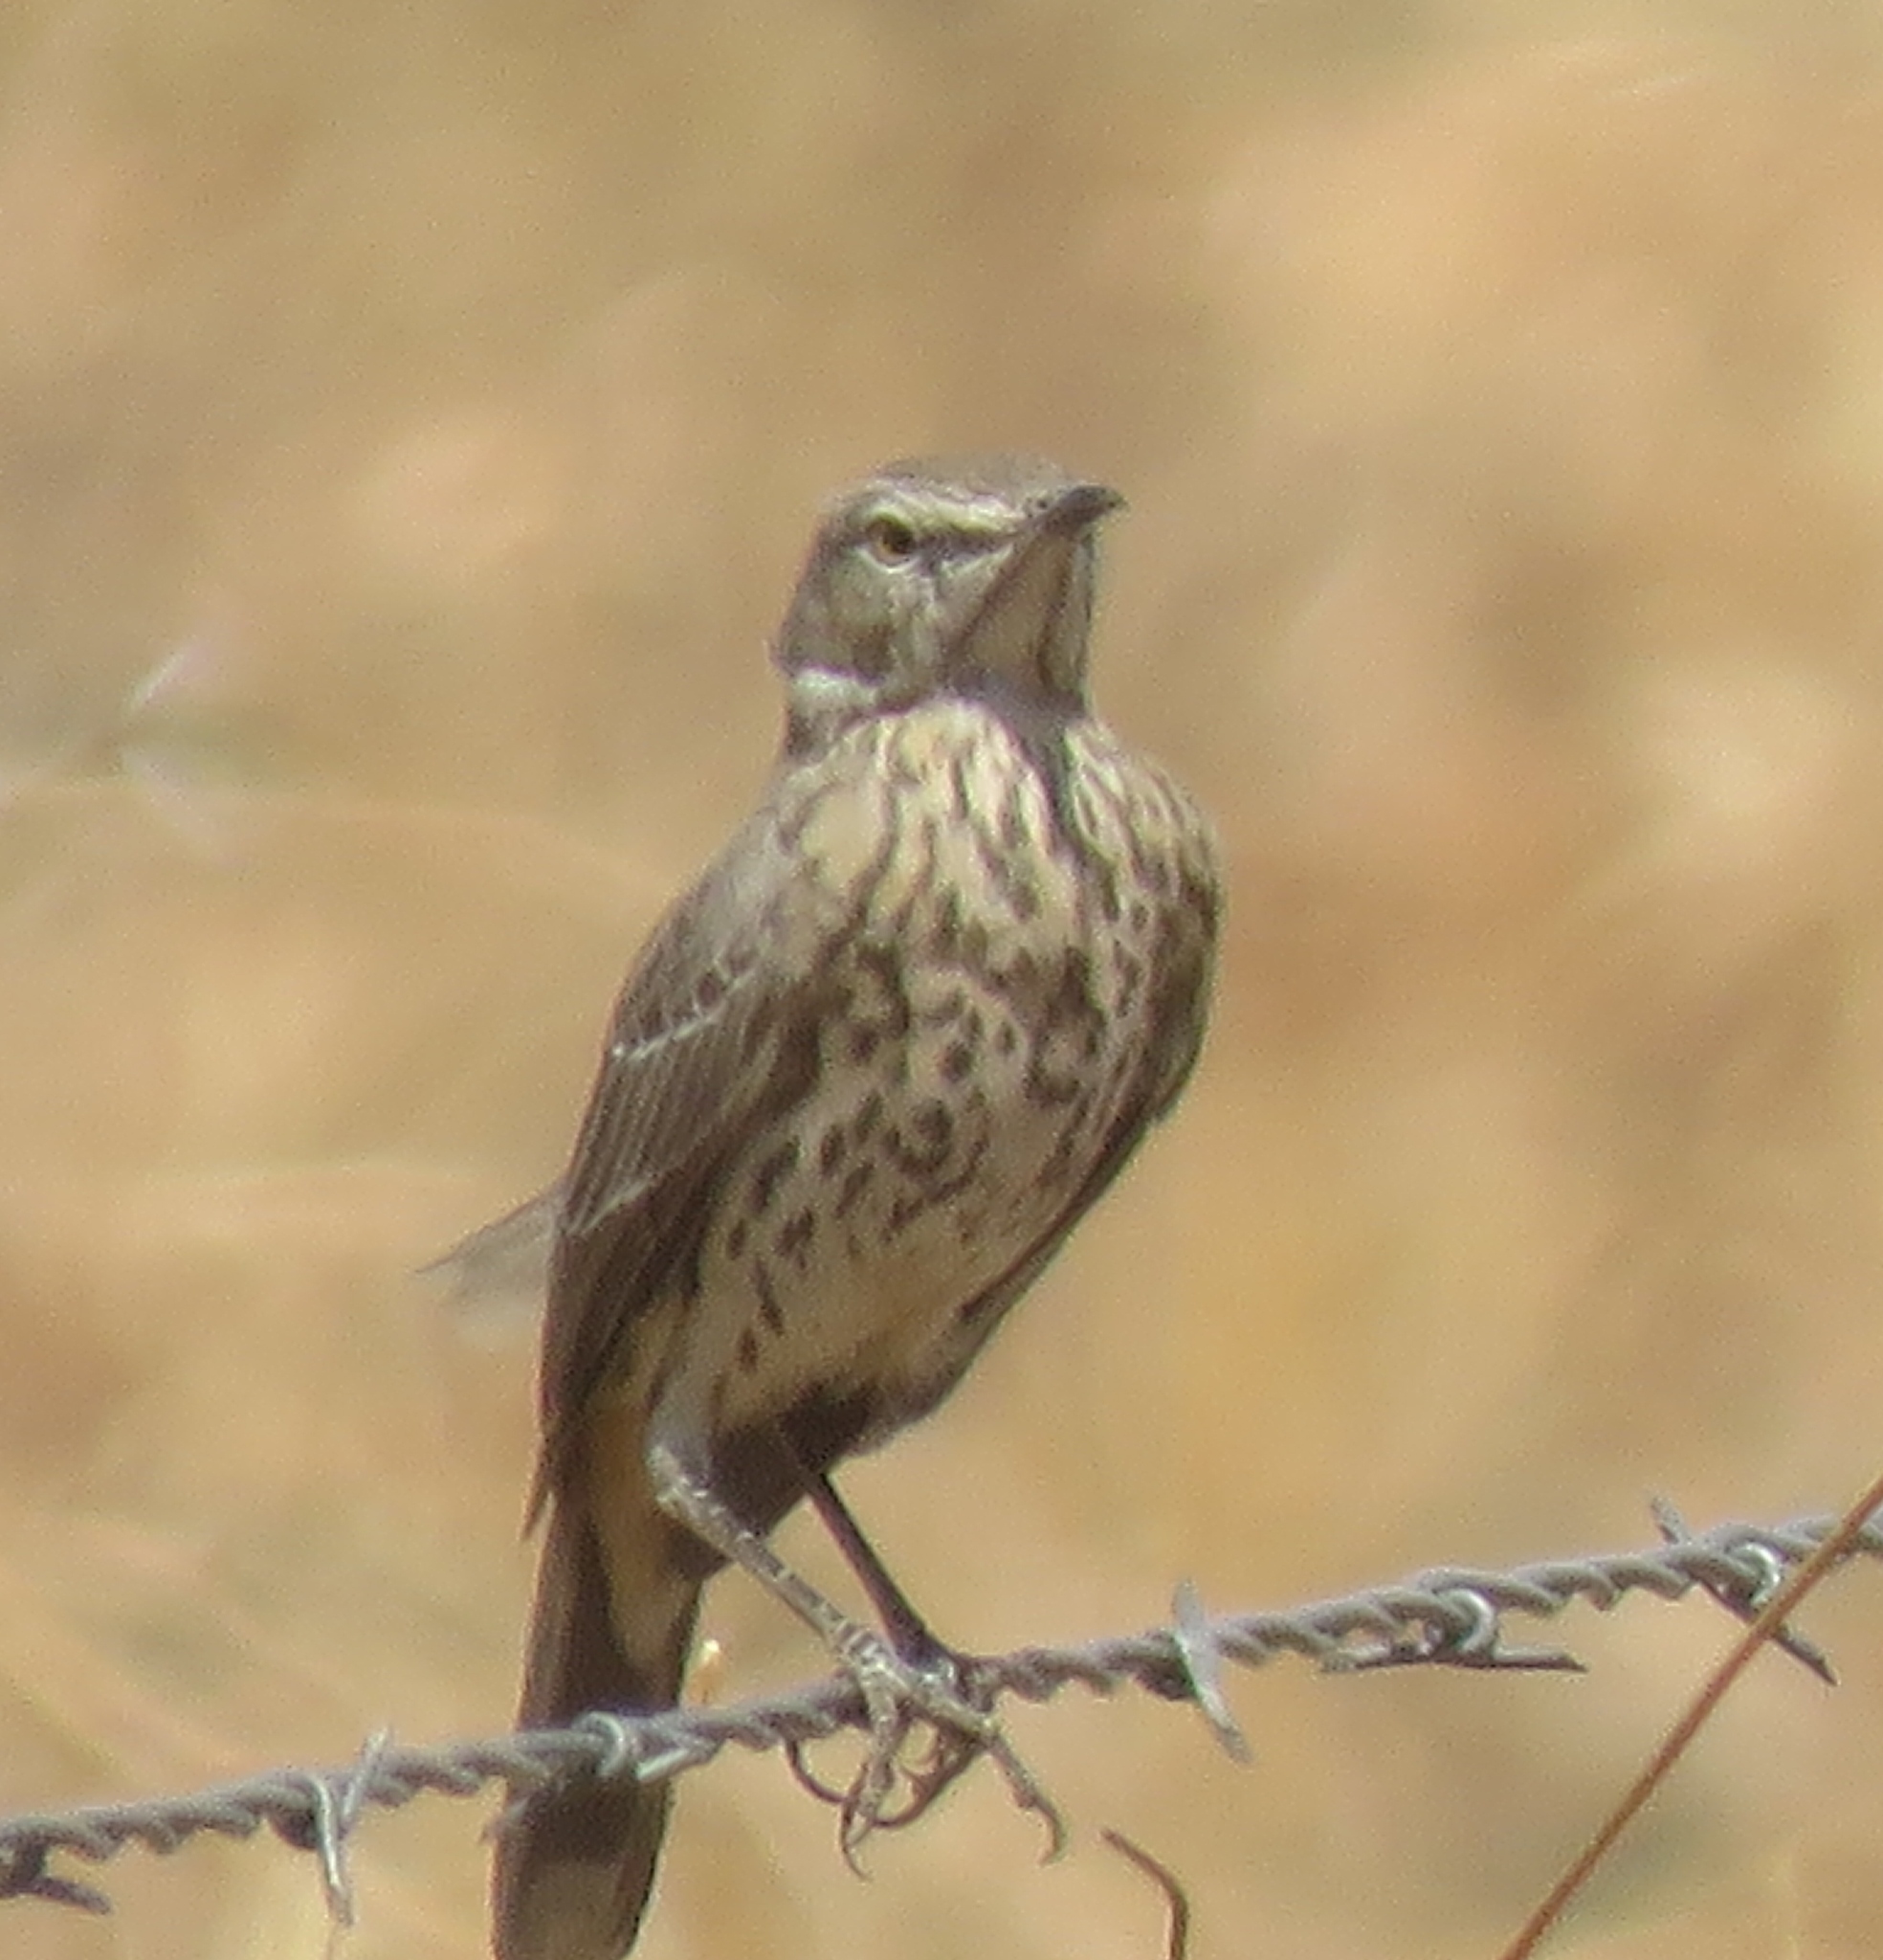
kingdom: Animalia
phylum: Chordata
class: Aves
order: Passeriformes
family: Mimidae
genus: Oreoscoptes
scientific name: Oreoscoptes montanus
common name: Sage thrasher
